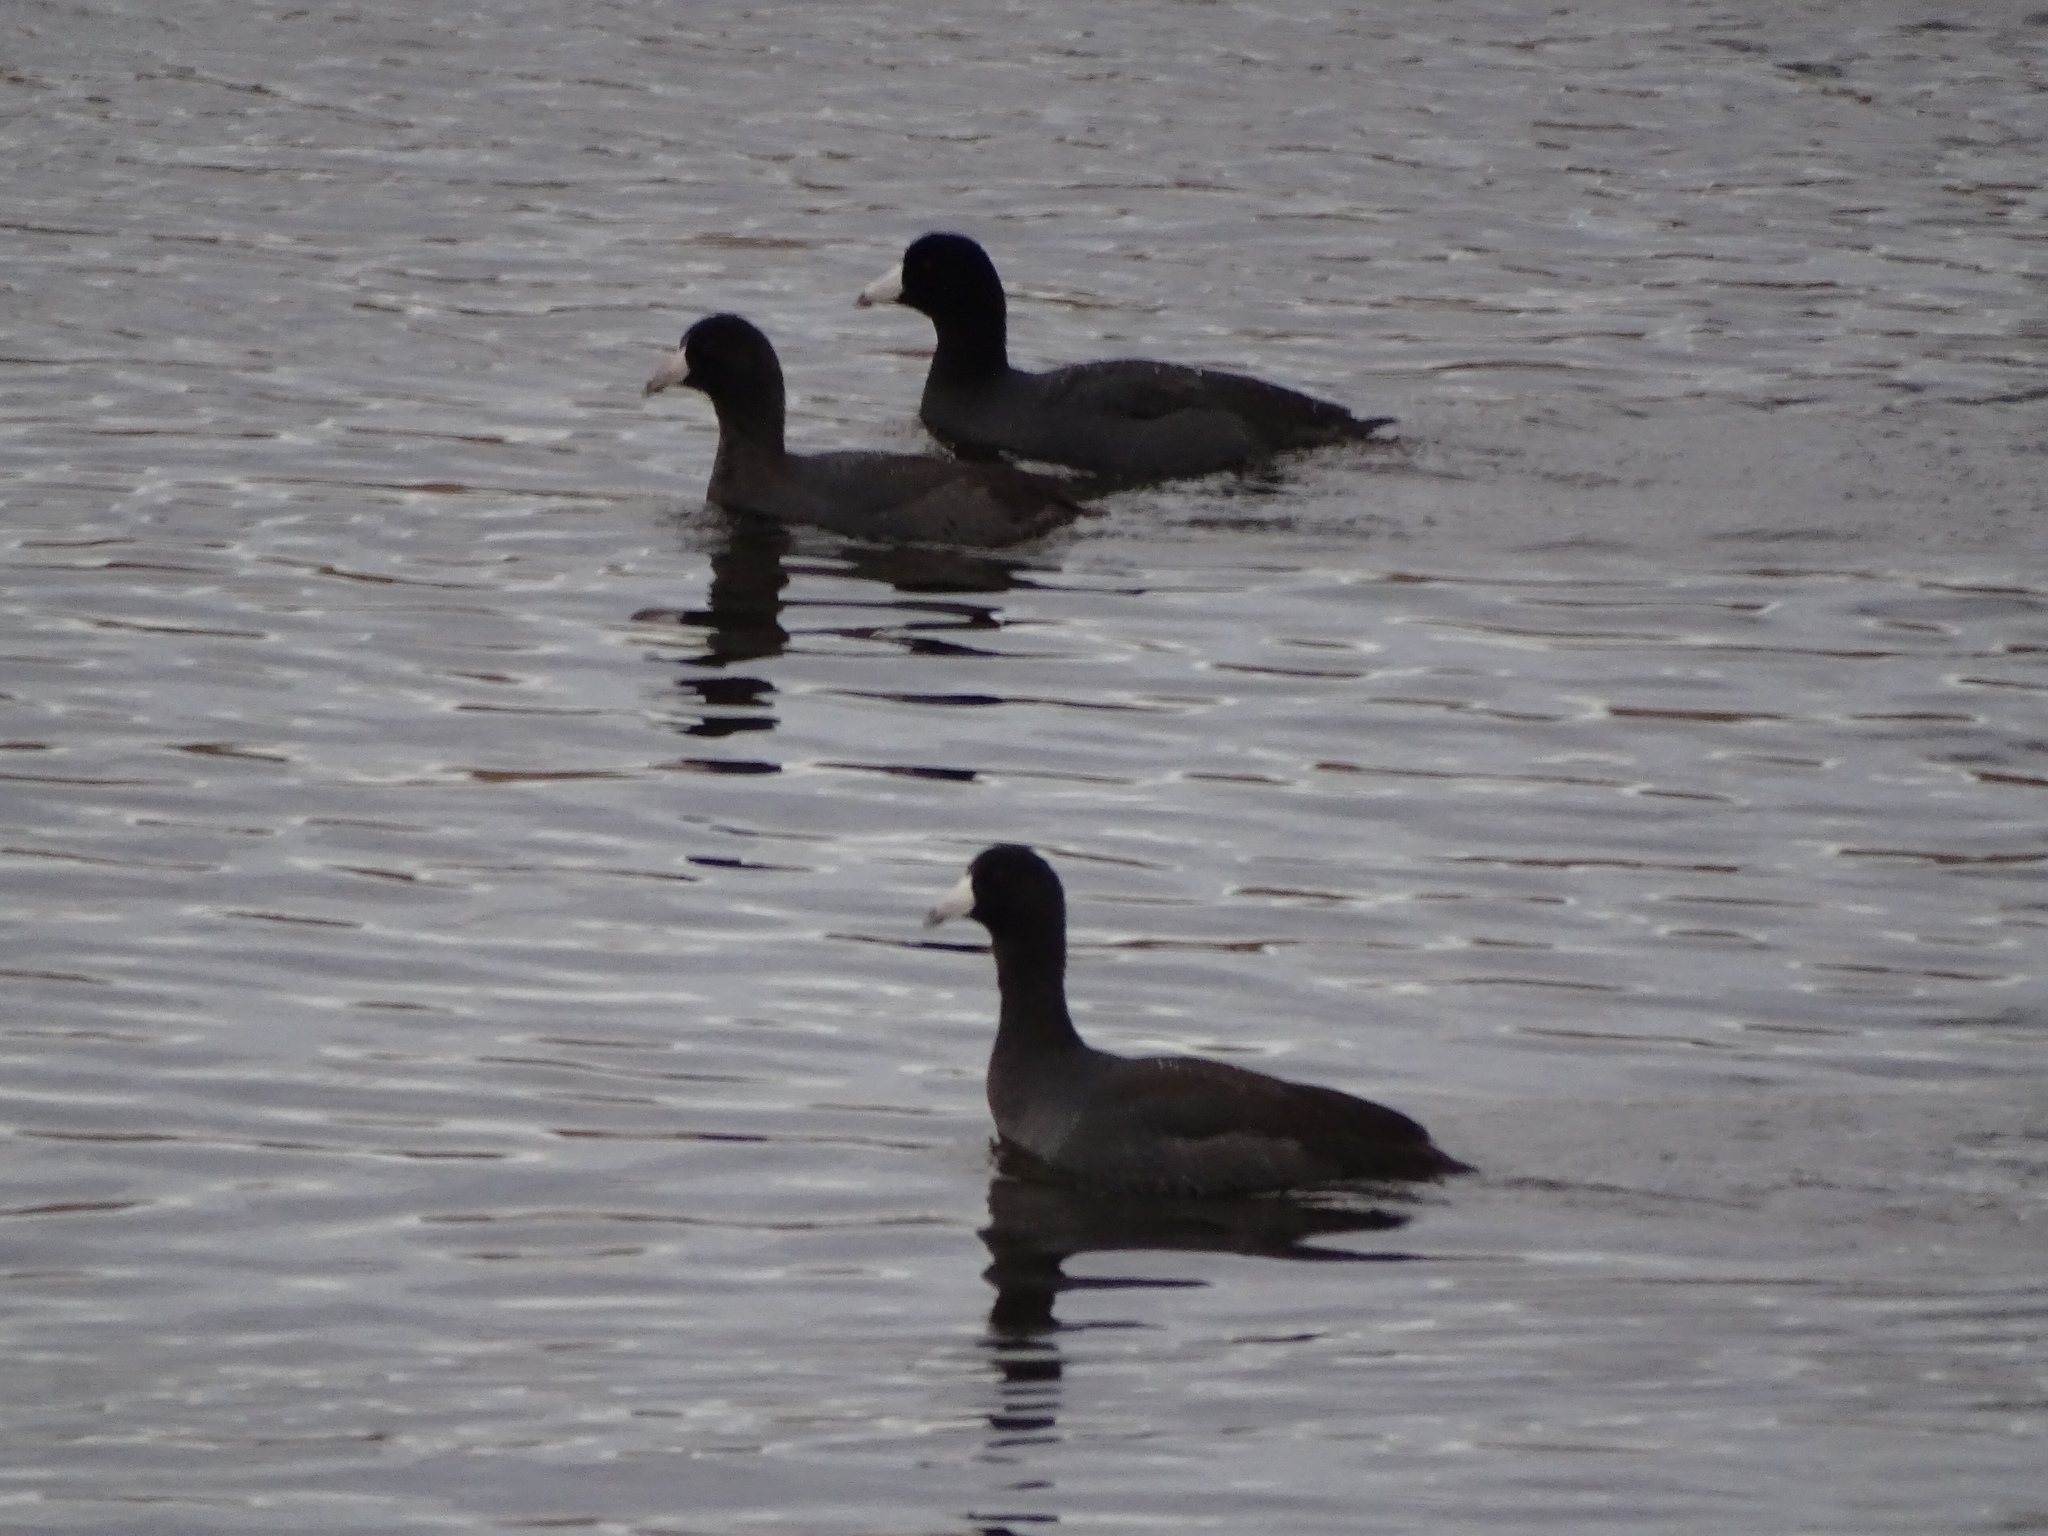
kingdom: Animalia
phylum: Chordata
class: Aves
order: Gruiformes
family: Rallidae
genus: Fulica
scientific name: Fulica americana
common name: American coot
